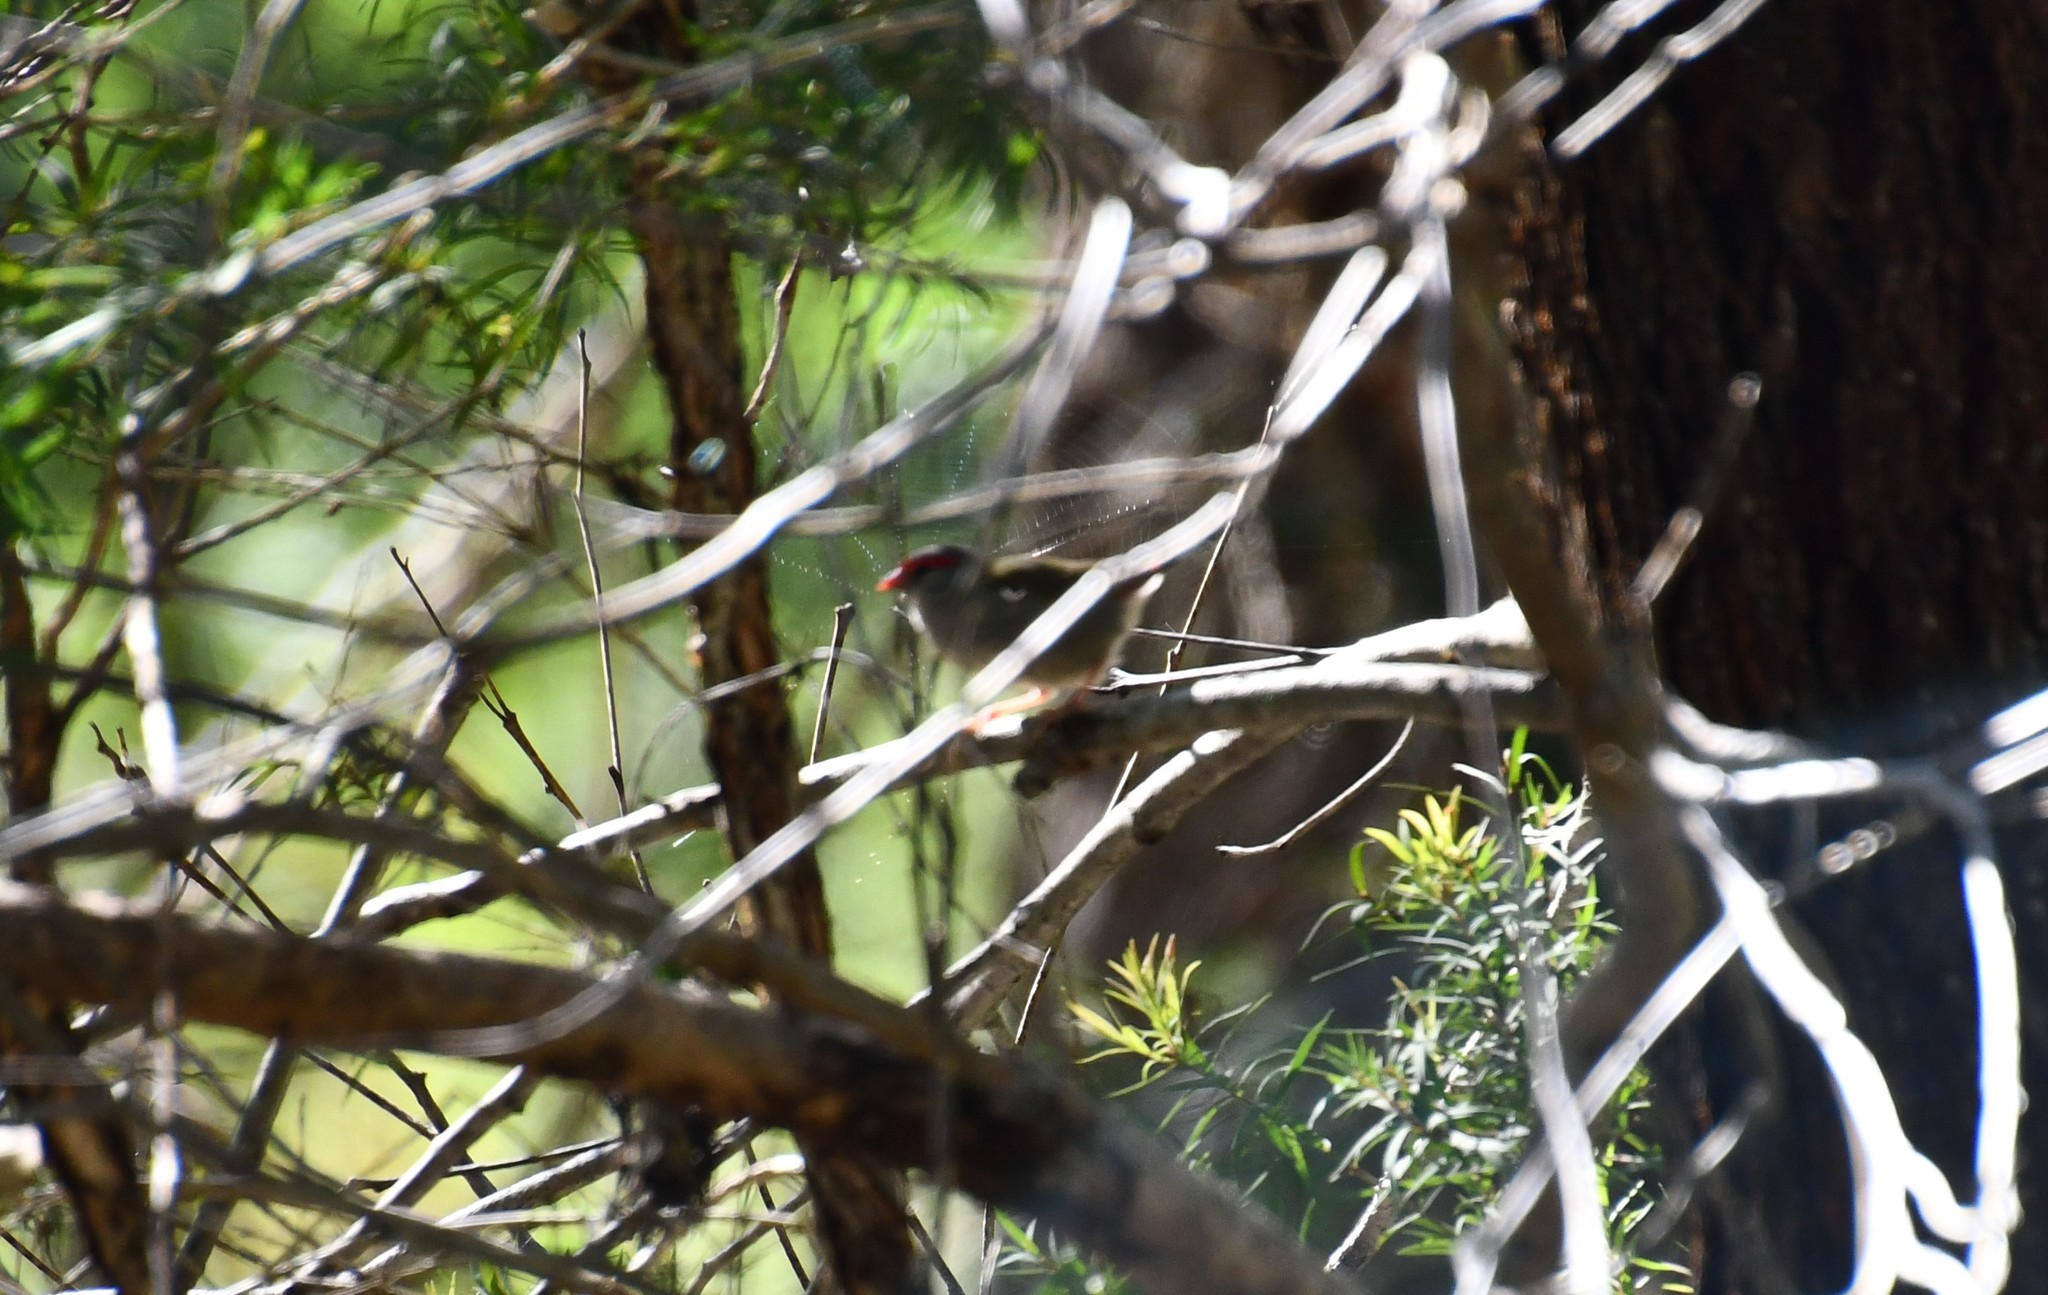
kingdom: Animalia
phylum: Chordata
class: Aves
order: Passeriformes
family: Estrildidae
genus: Neochmia
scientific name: Neochmia temporalis
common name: Red-browed finch
